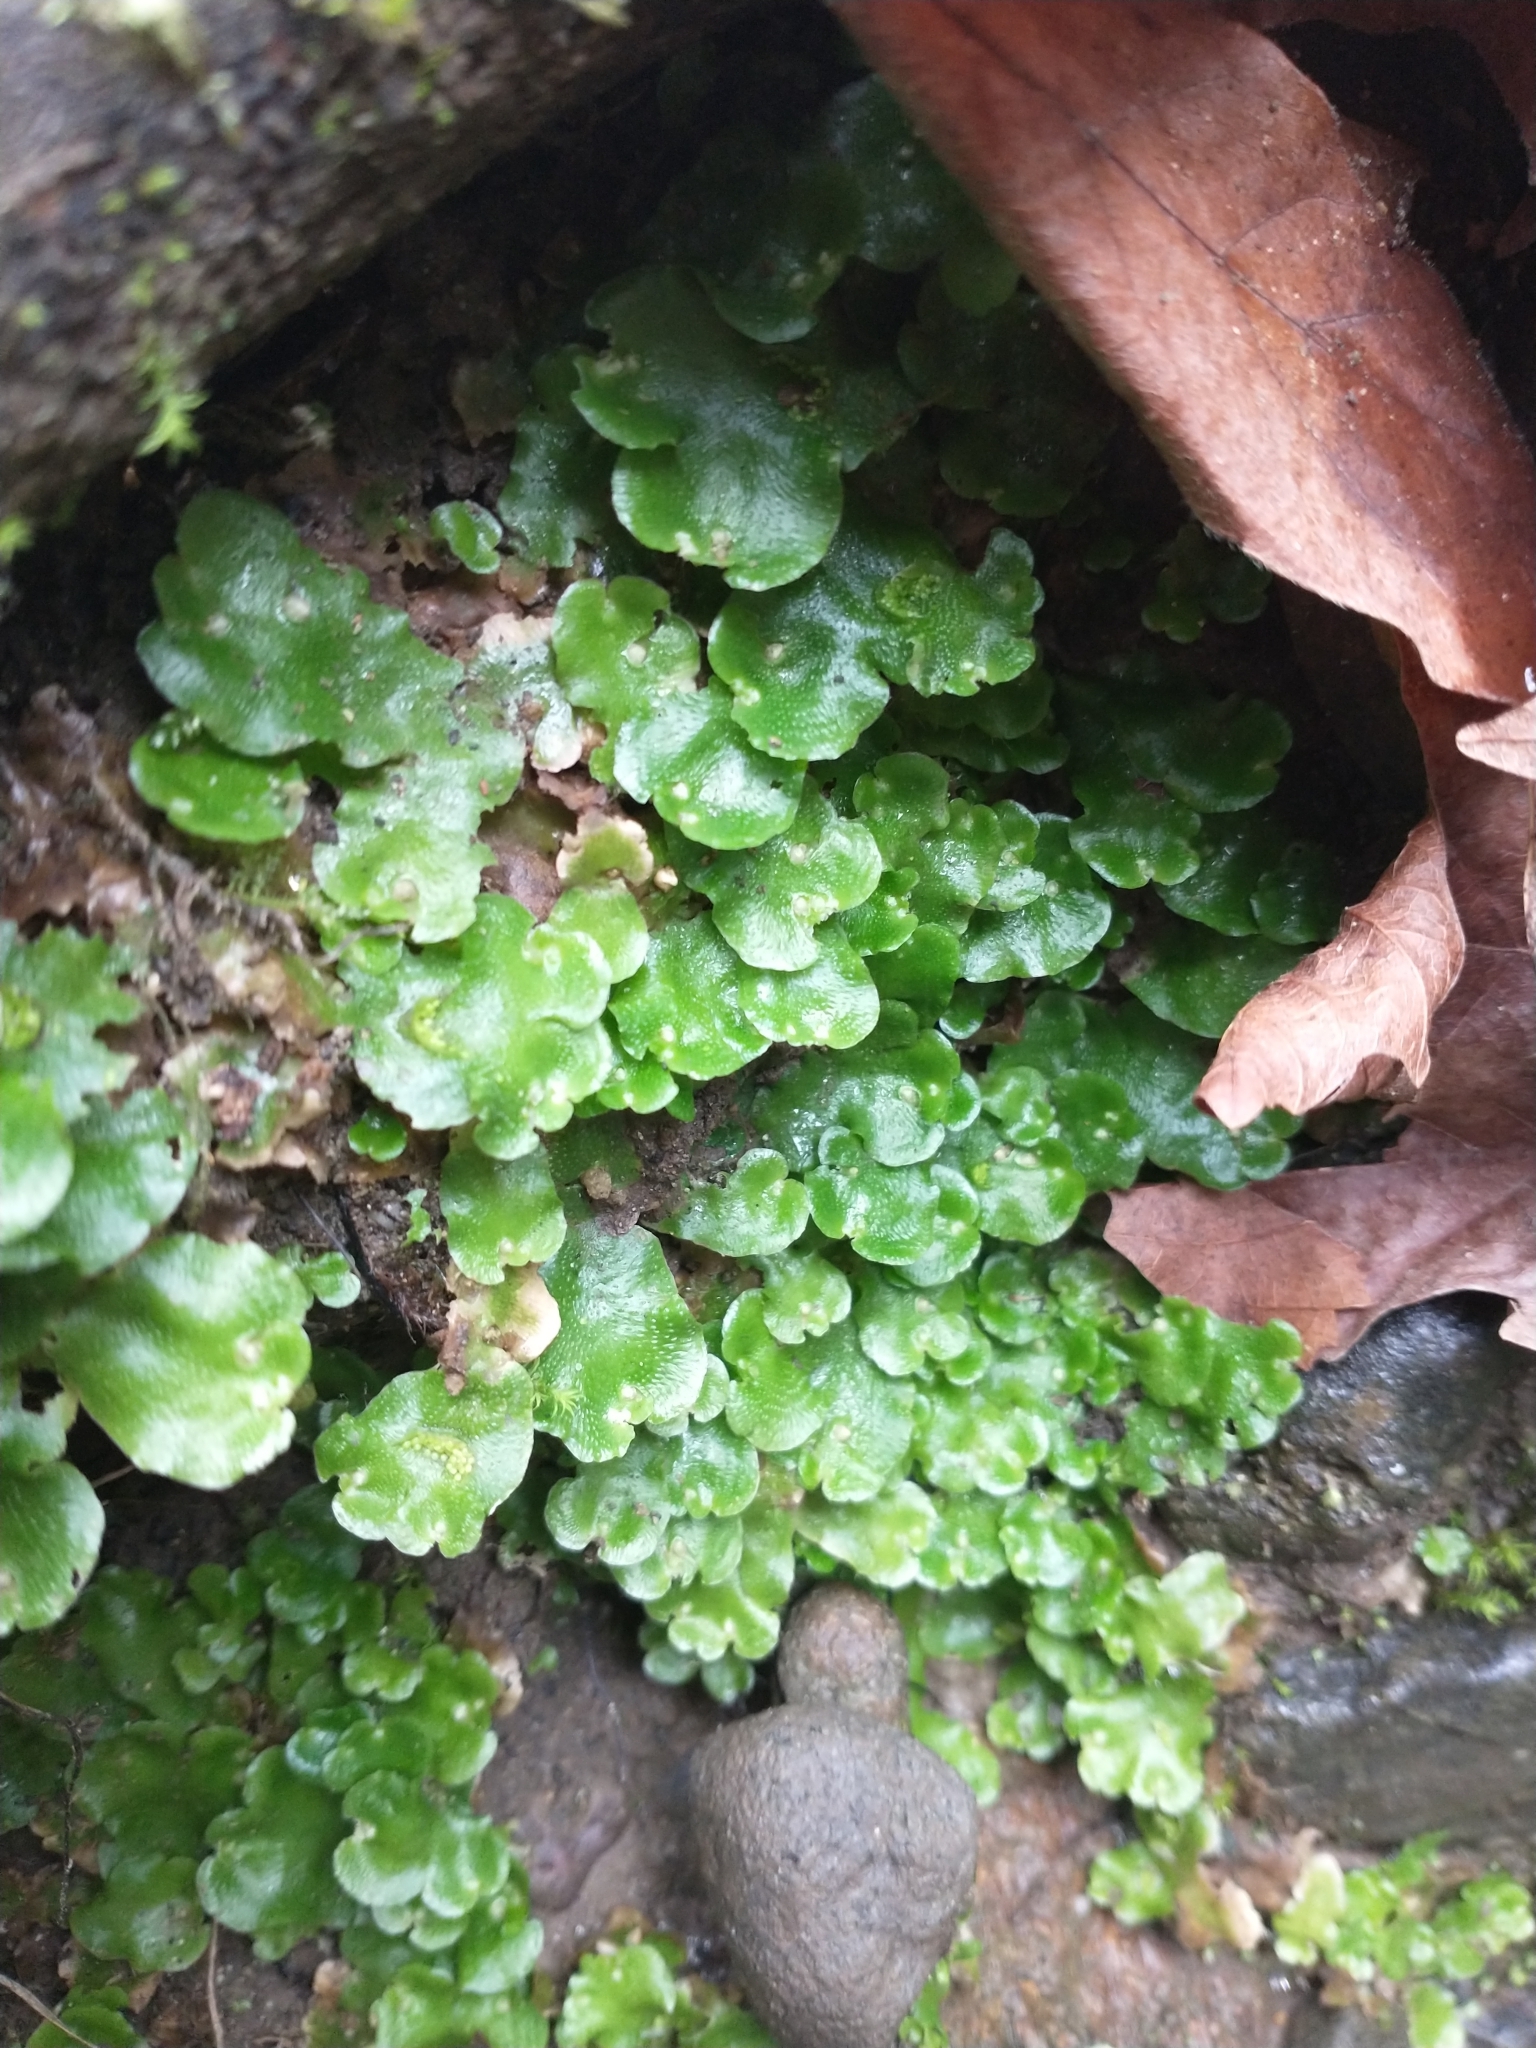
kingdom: Plantae
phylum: Marchantiophyta
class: Marchantiopsida
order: Lunulariales
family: Lunulariaceae
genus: Lunularia
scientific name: Lunularia cruciata
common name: Crescent-cup liverwort
